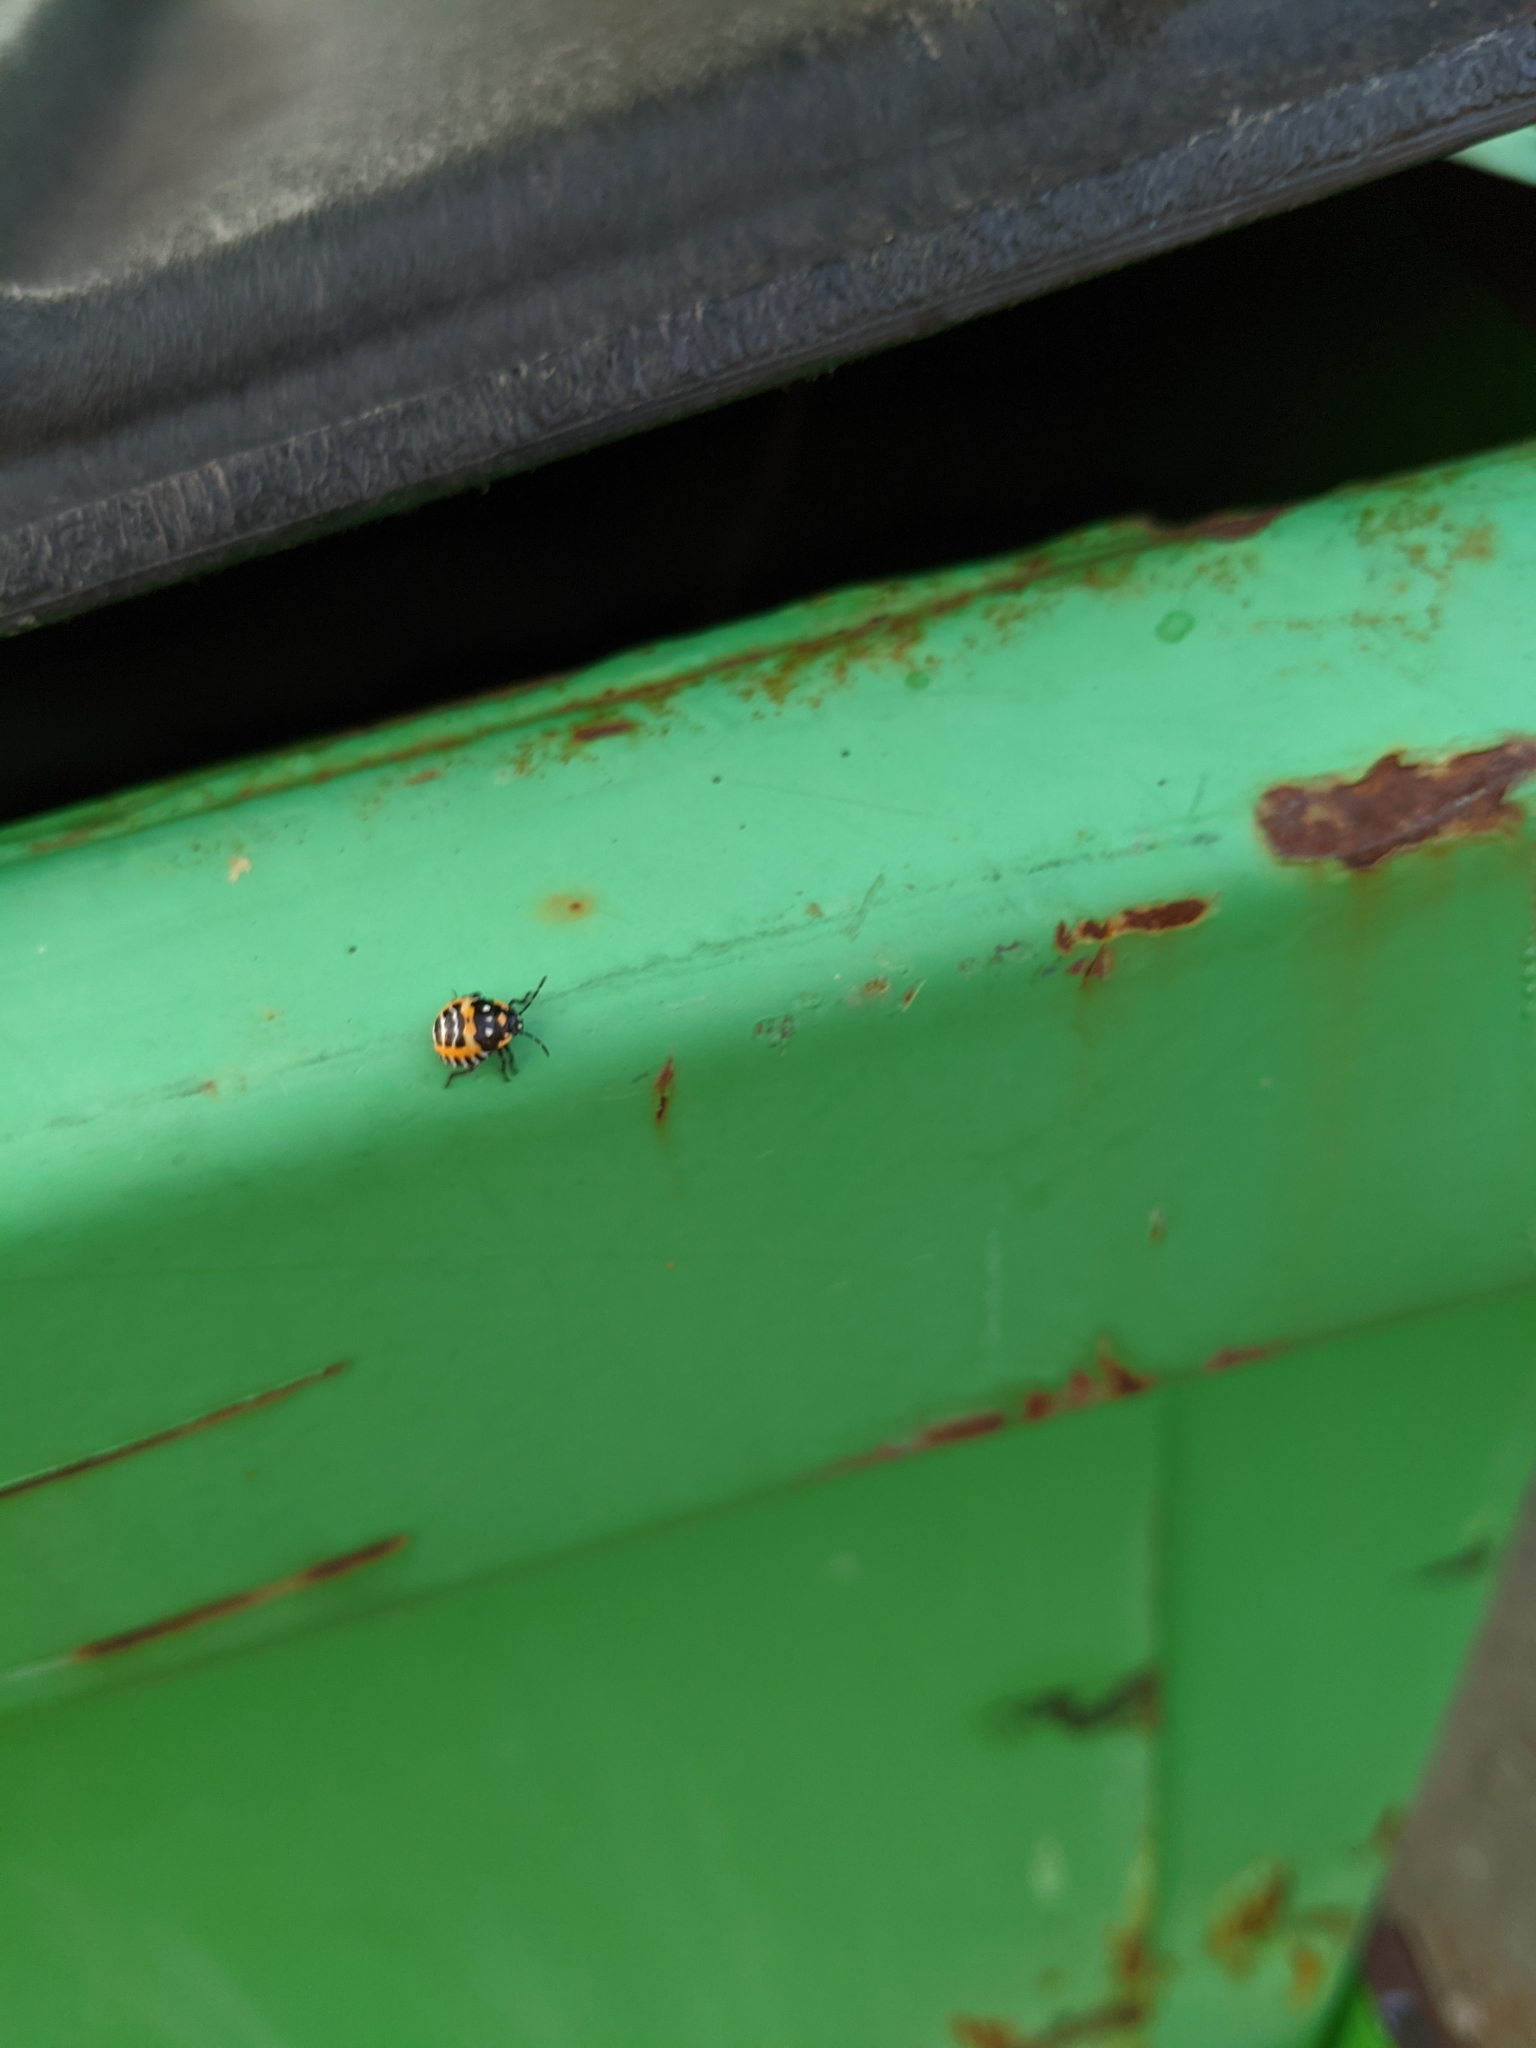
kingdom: Animalia
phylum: Arthropoda
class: Insecta
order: Hemiptera
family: Pentatomidae
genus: Murgantia
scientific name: Murgantia histrionica
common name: Harlequin bug
